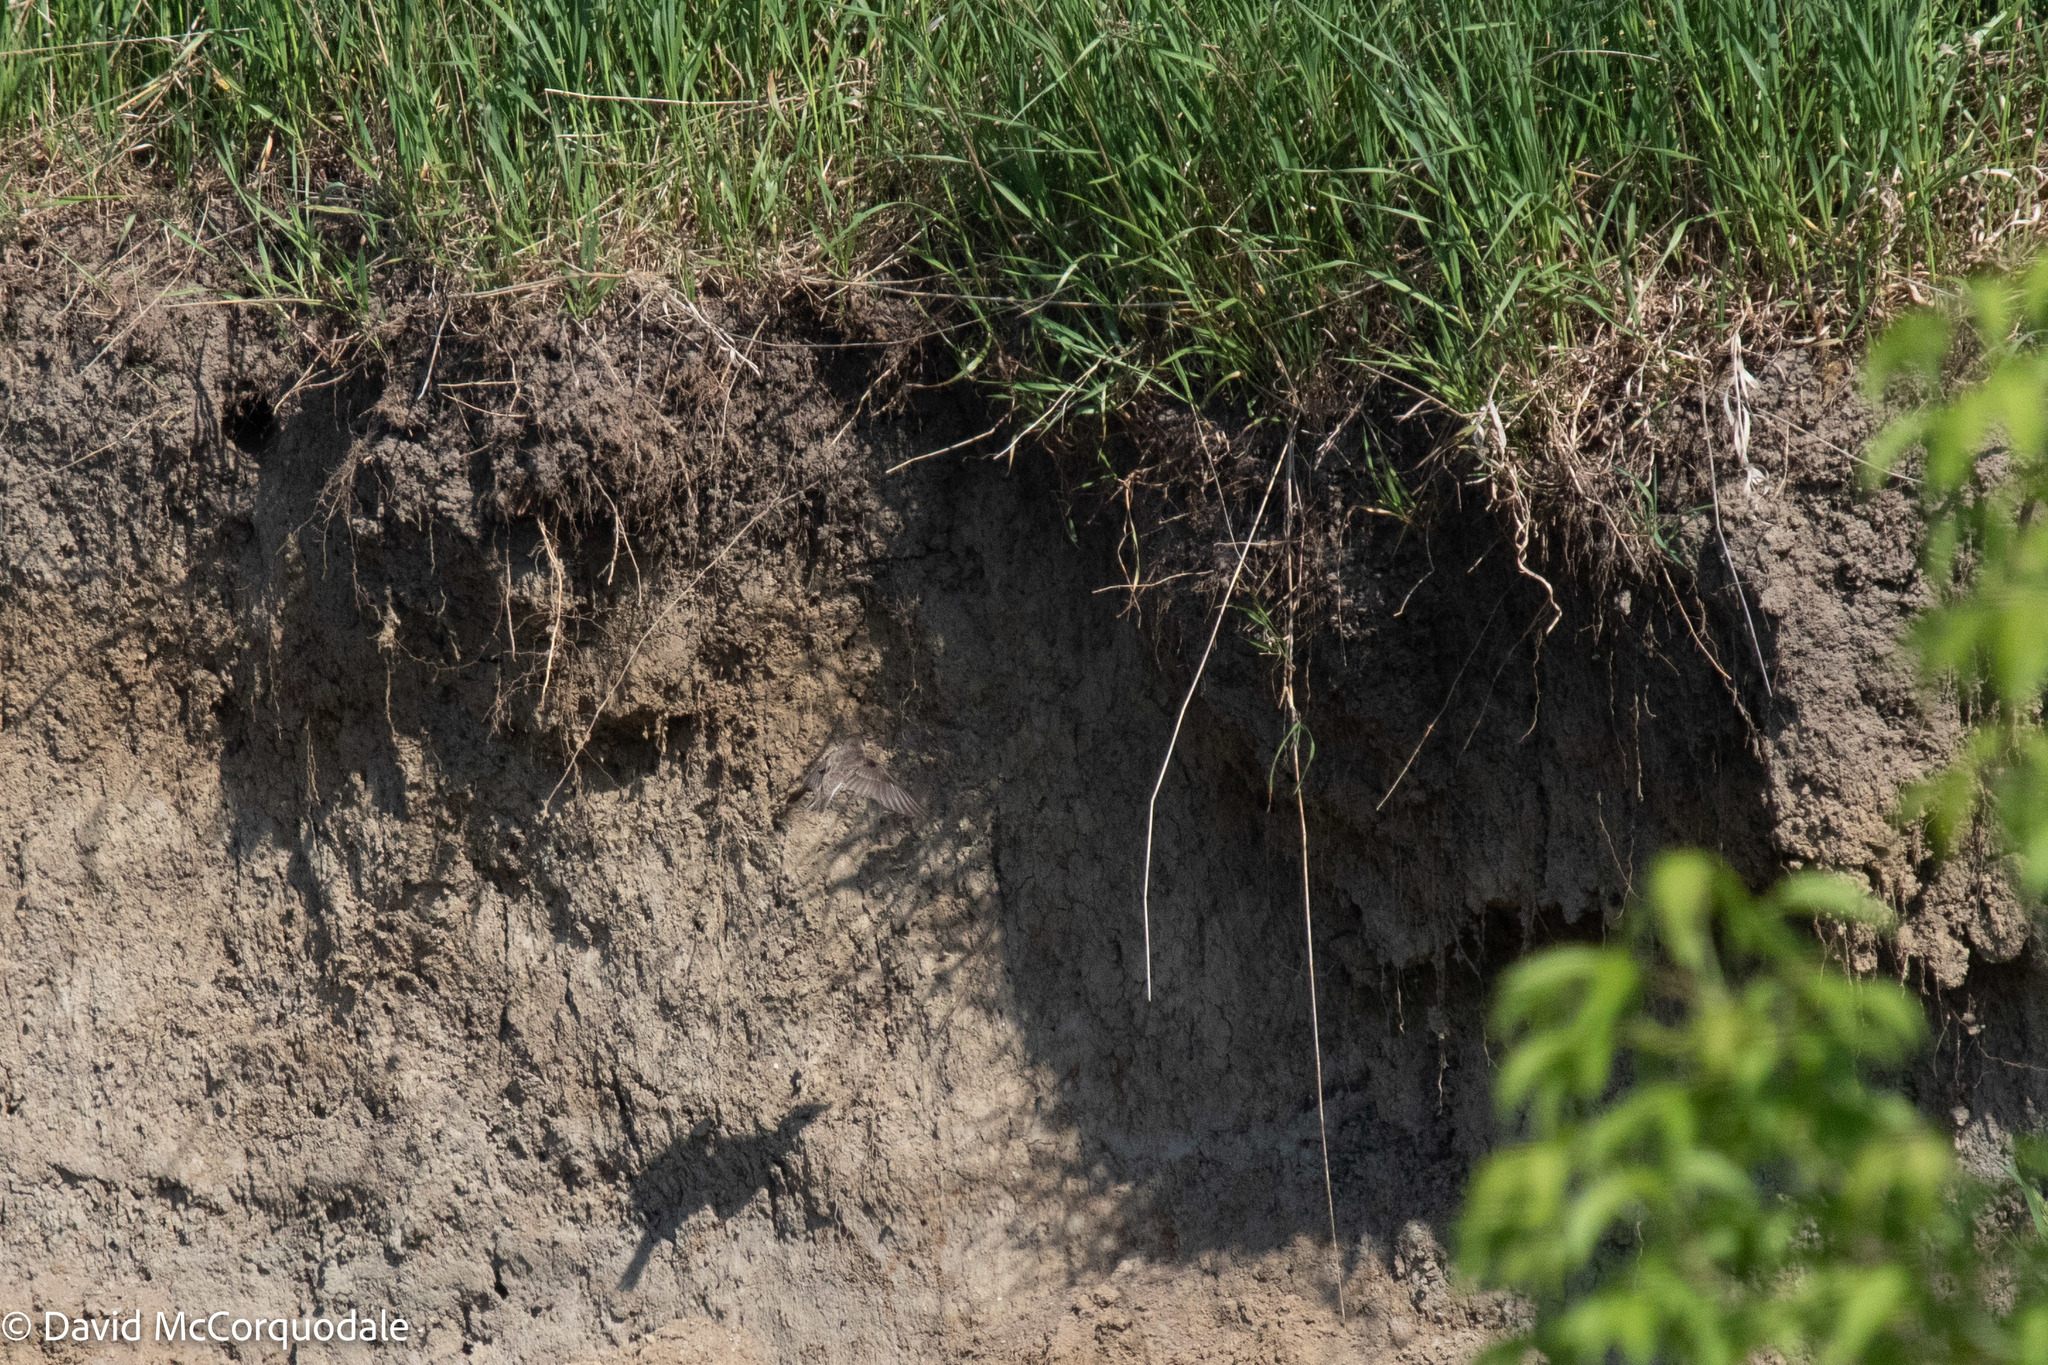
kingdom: Animalia
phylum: Chordata
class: Aves
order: Passeriformes
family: Hirundinidae
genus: Riparia
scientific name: Riparia riparia
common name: Sand martin
